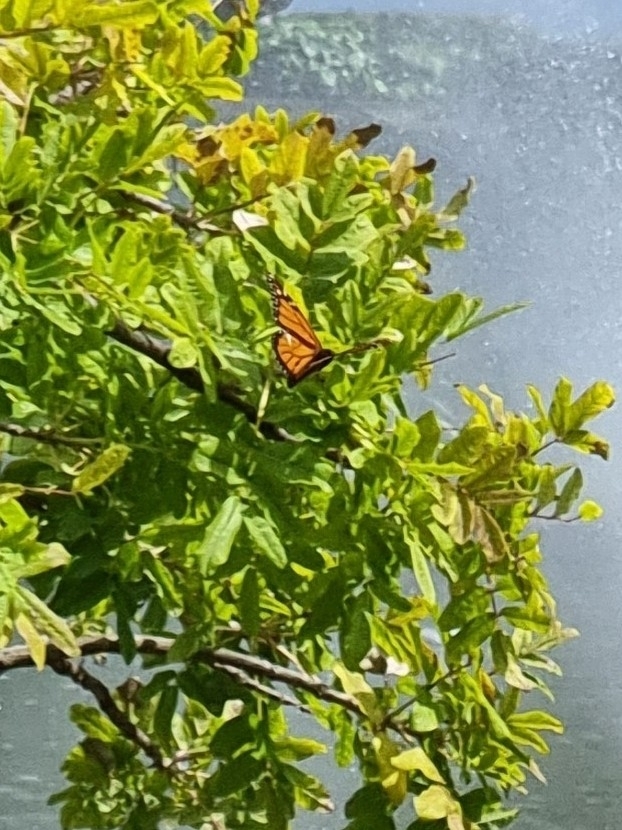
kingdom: Animalia
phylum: Arthropoda
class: Insecta
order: Lepidoptera
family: Nymphalidae
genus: Danaus
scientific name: Danaus plexippus
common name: Monarch
